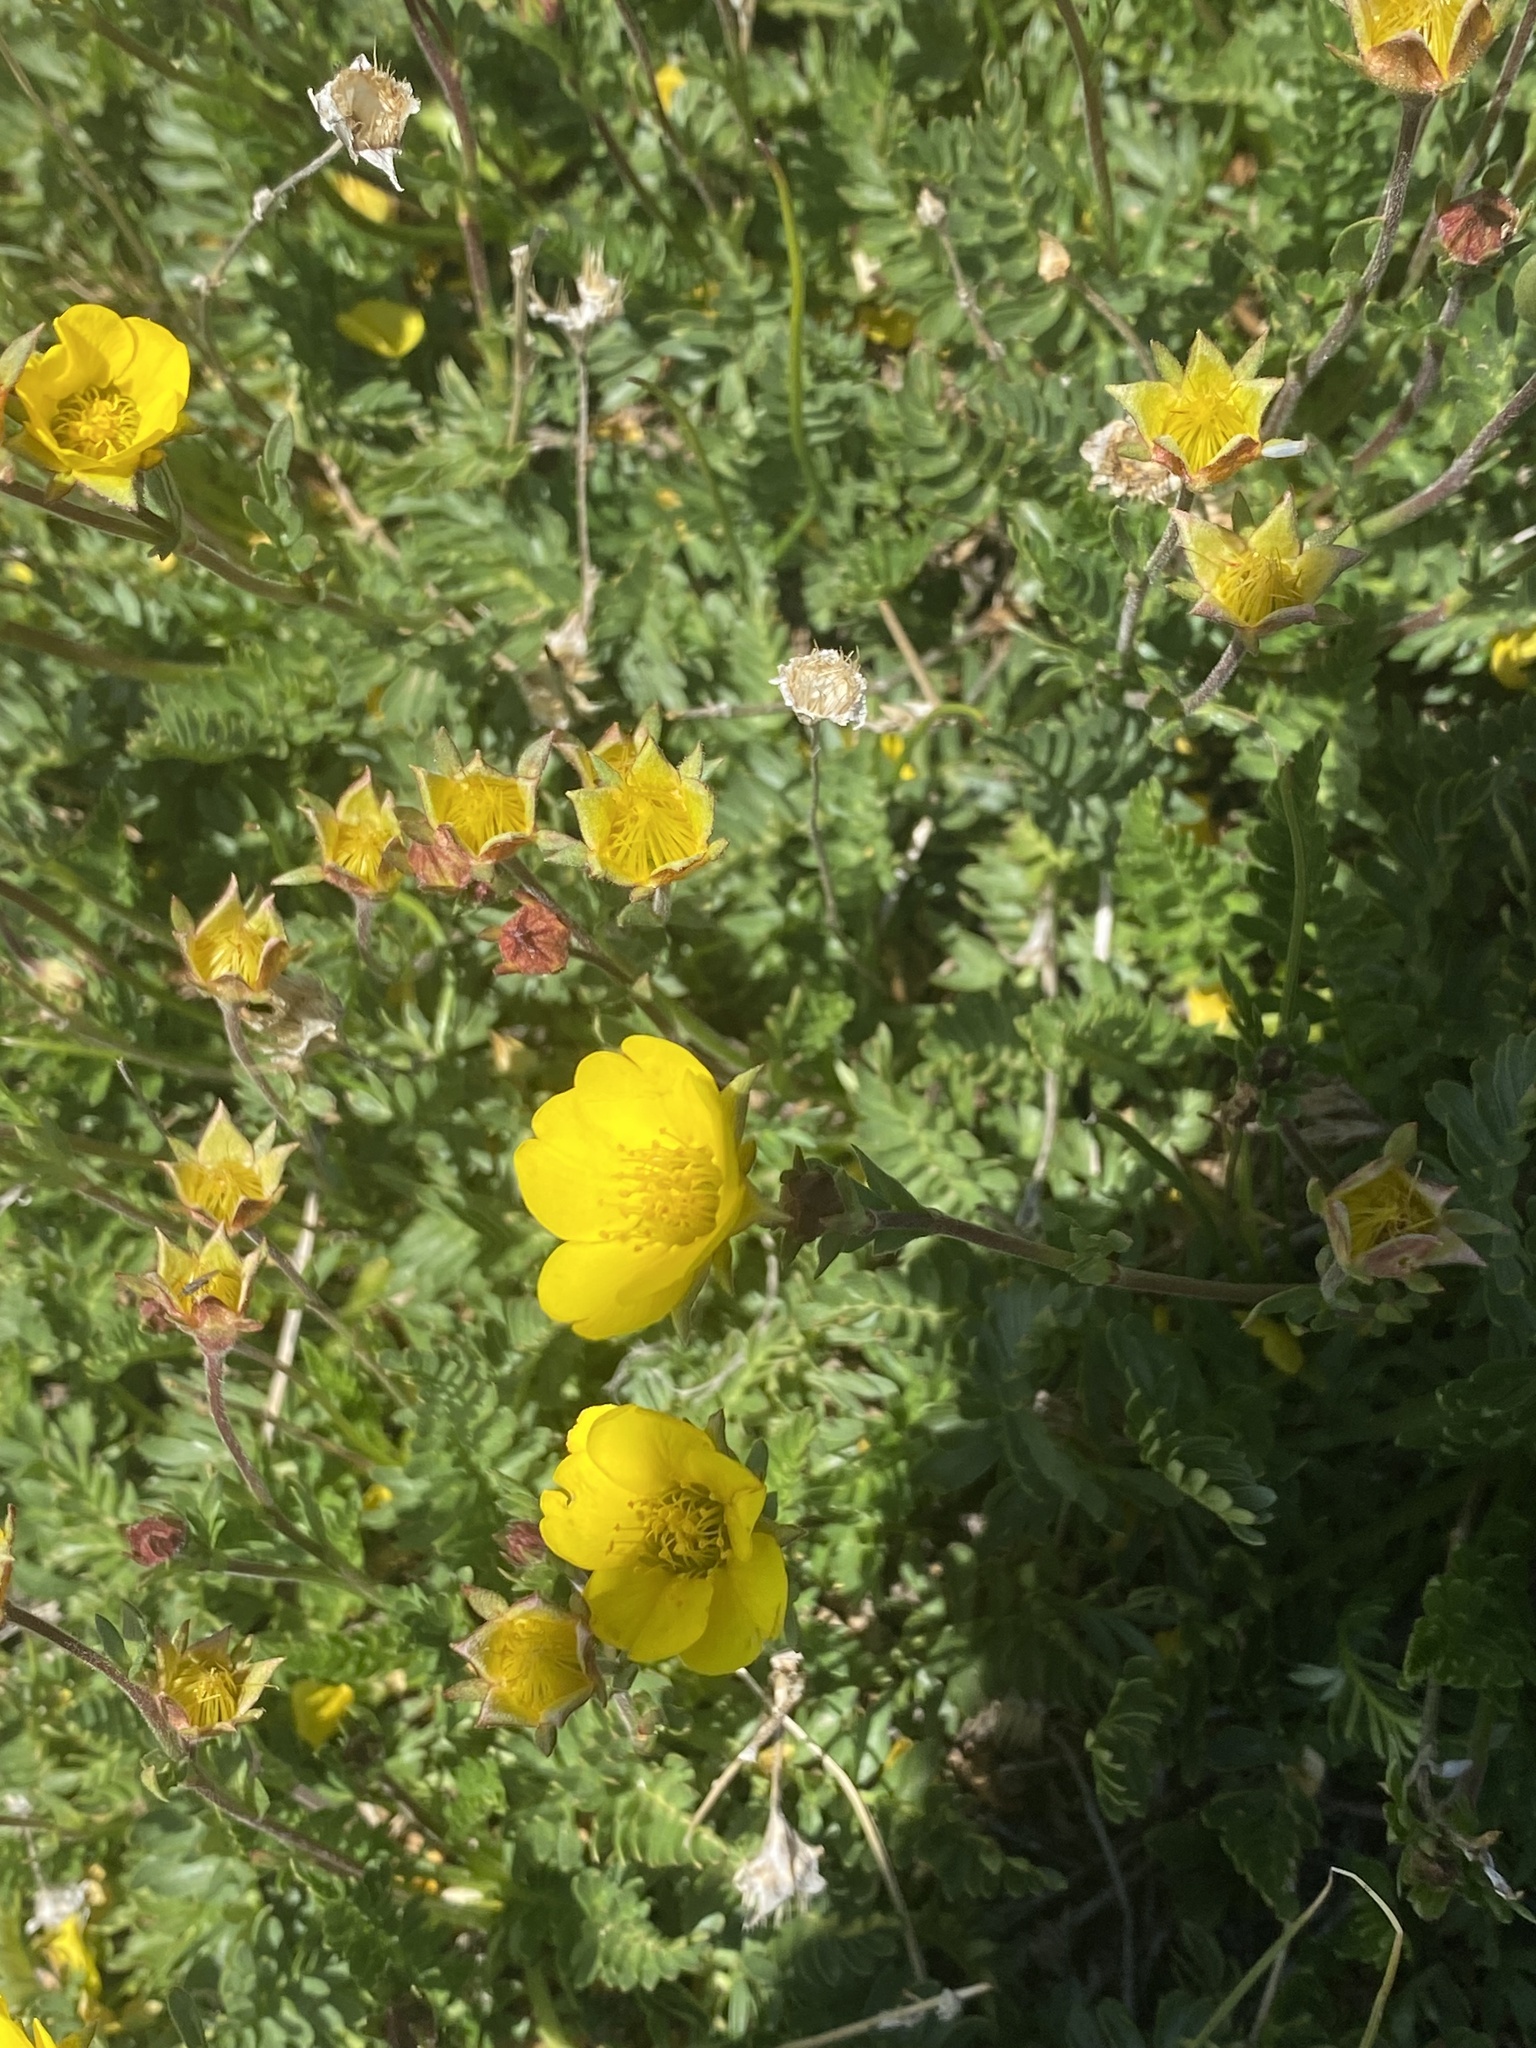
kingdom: Plantae
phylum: Tracheophyta
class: Magnoliopsida
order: Rosales
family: Rosaceae
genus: Geum
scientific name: Geum rossii
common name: Alpine avens
